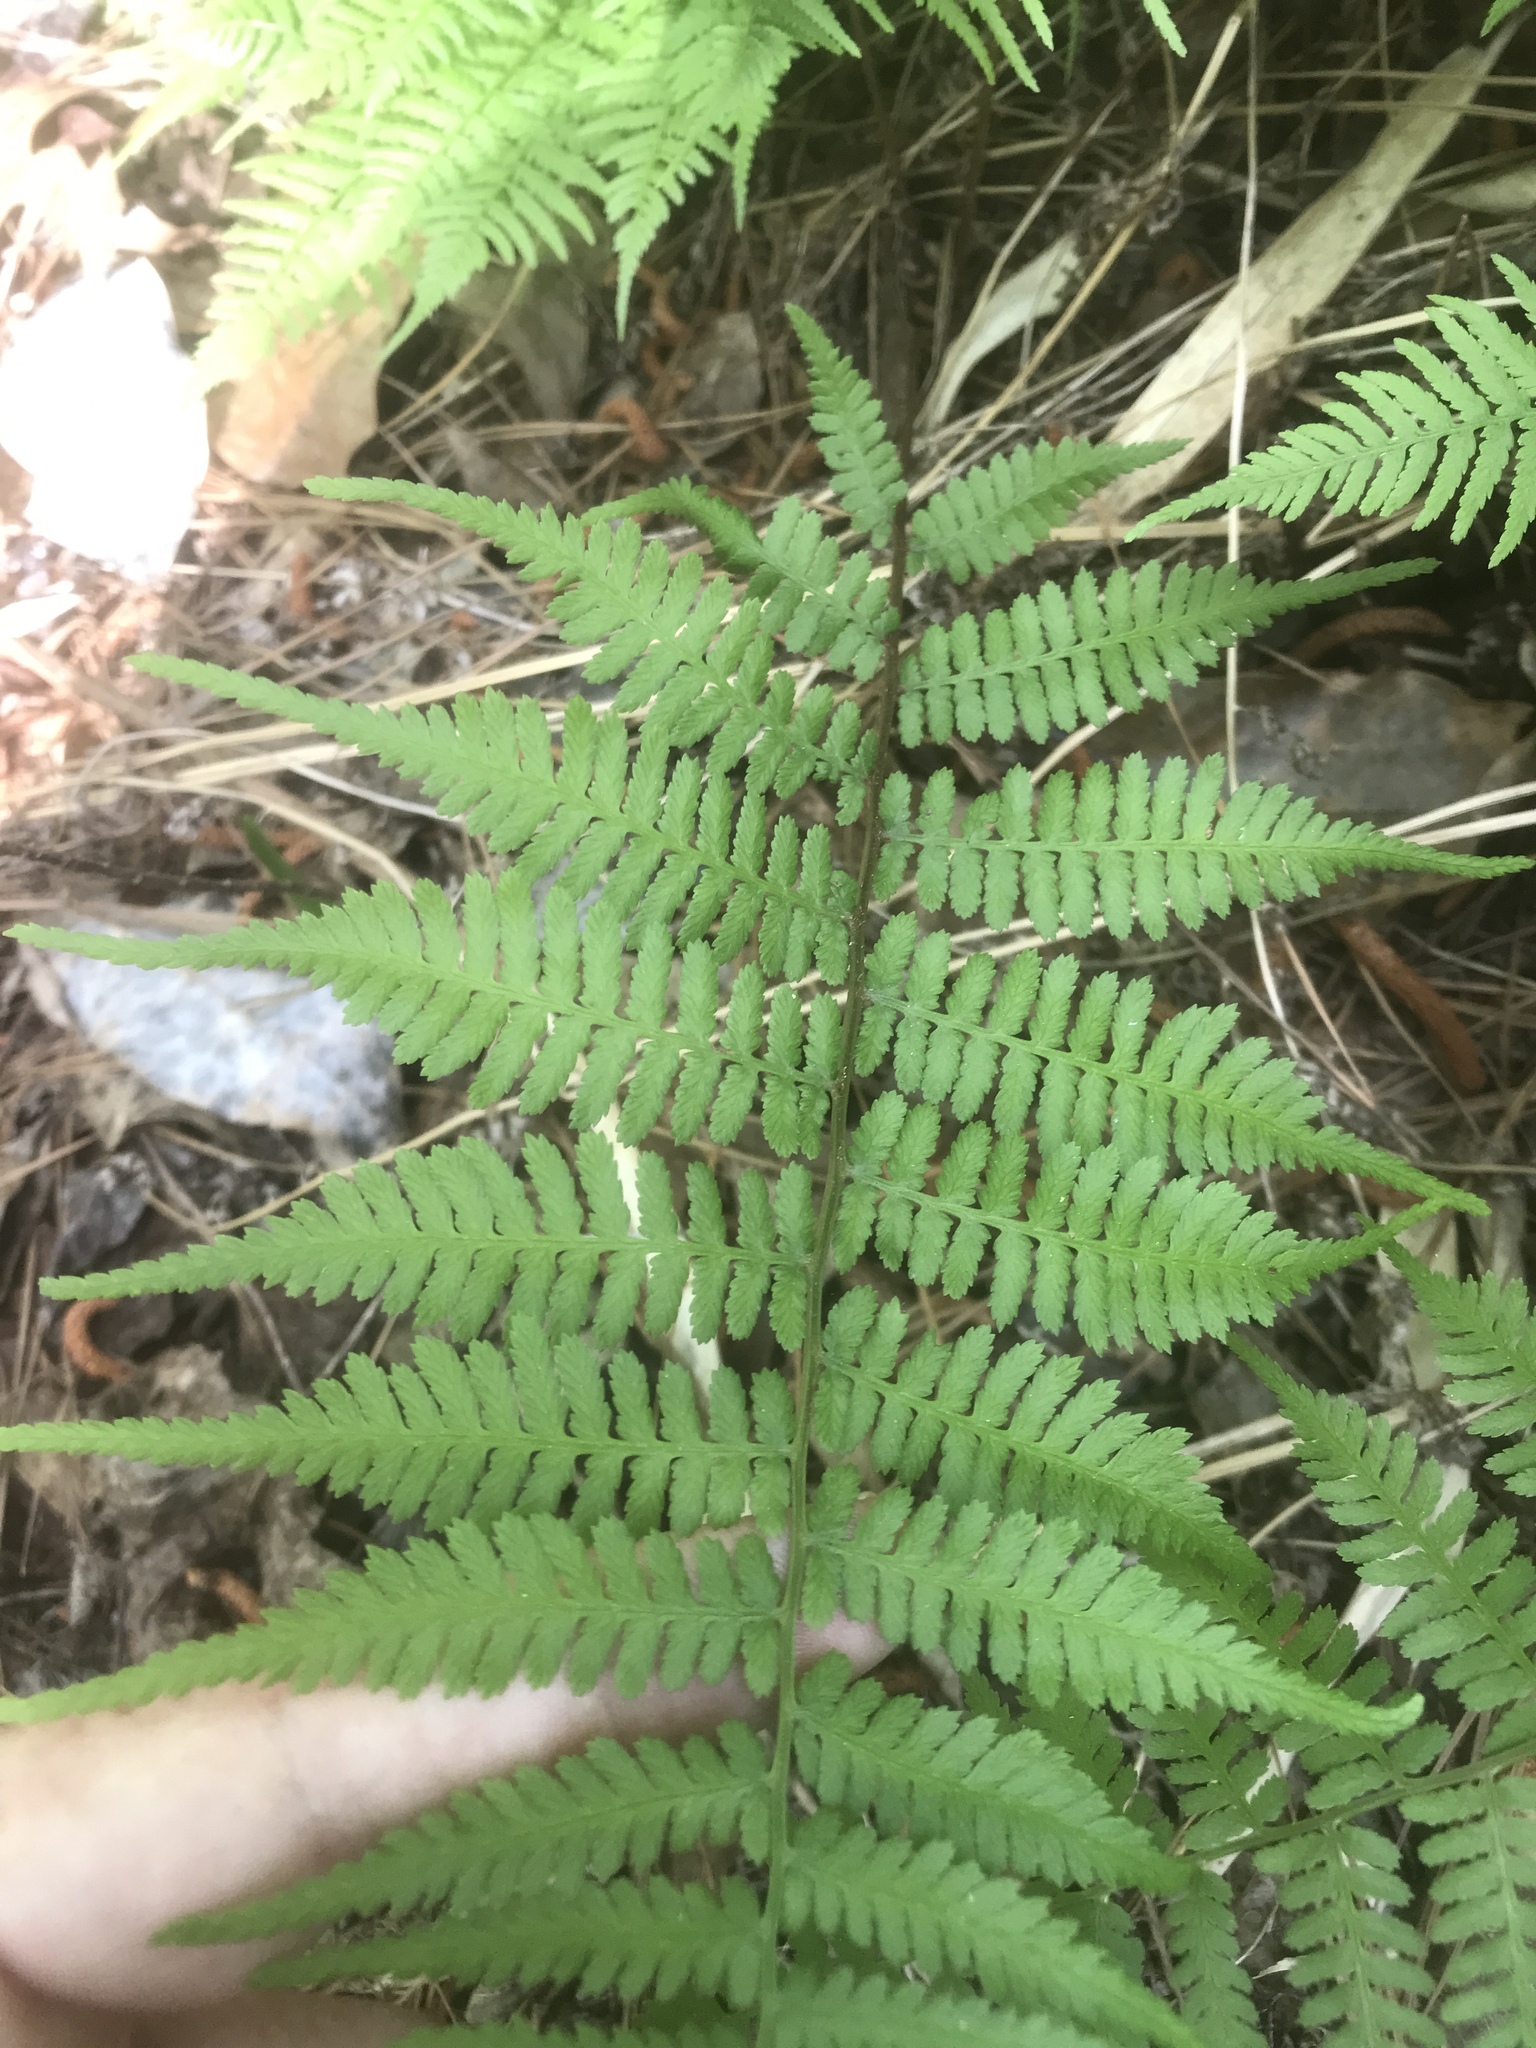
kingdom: Plantae
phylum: Tracheophyta
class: Polypodiopsida
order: Polypodiales
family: Athyriaceae
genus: Athyrium
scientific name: Athyrium asplenioides
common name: Southern lady fern
